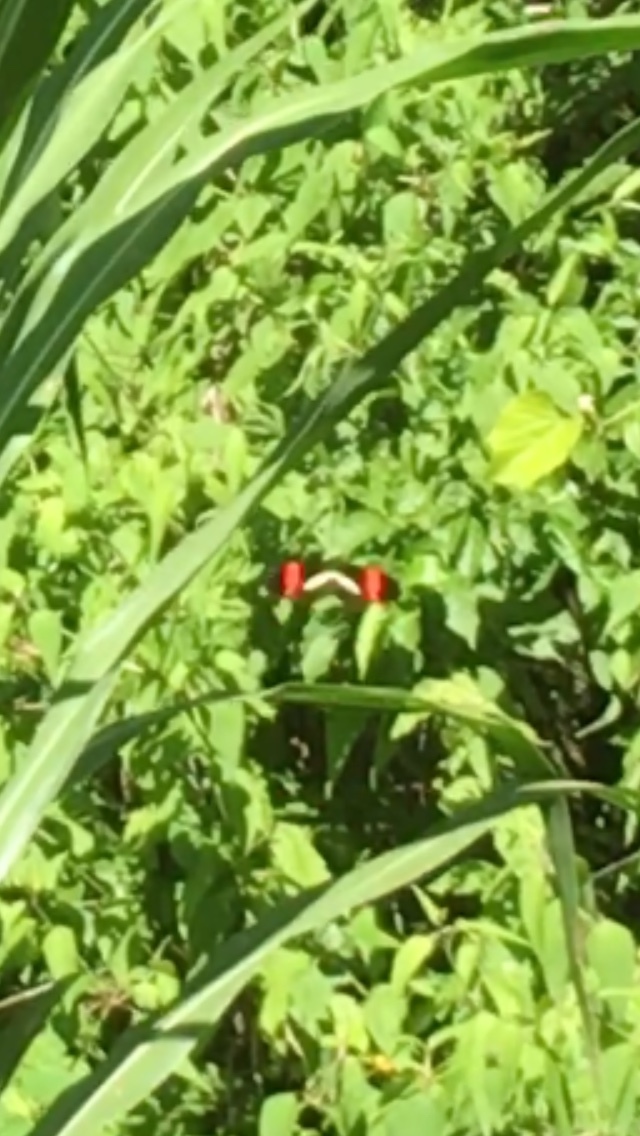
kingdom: Animalia
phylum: Arthropoda
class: Insecta
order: Lepidoptera
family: Nymphalidae
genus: Heliconius
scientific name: Heliconius erato
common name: Common patch longwing
